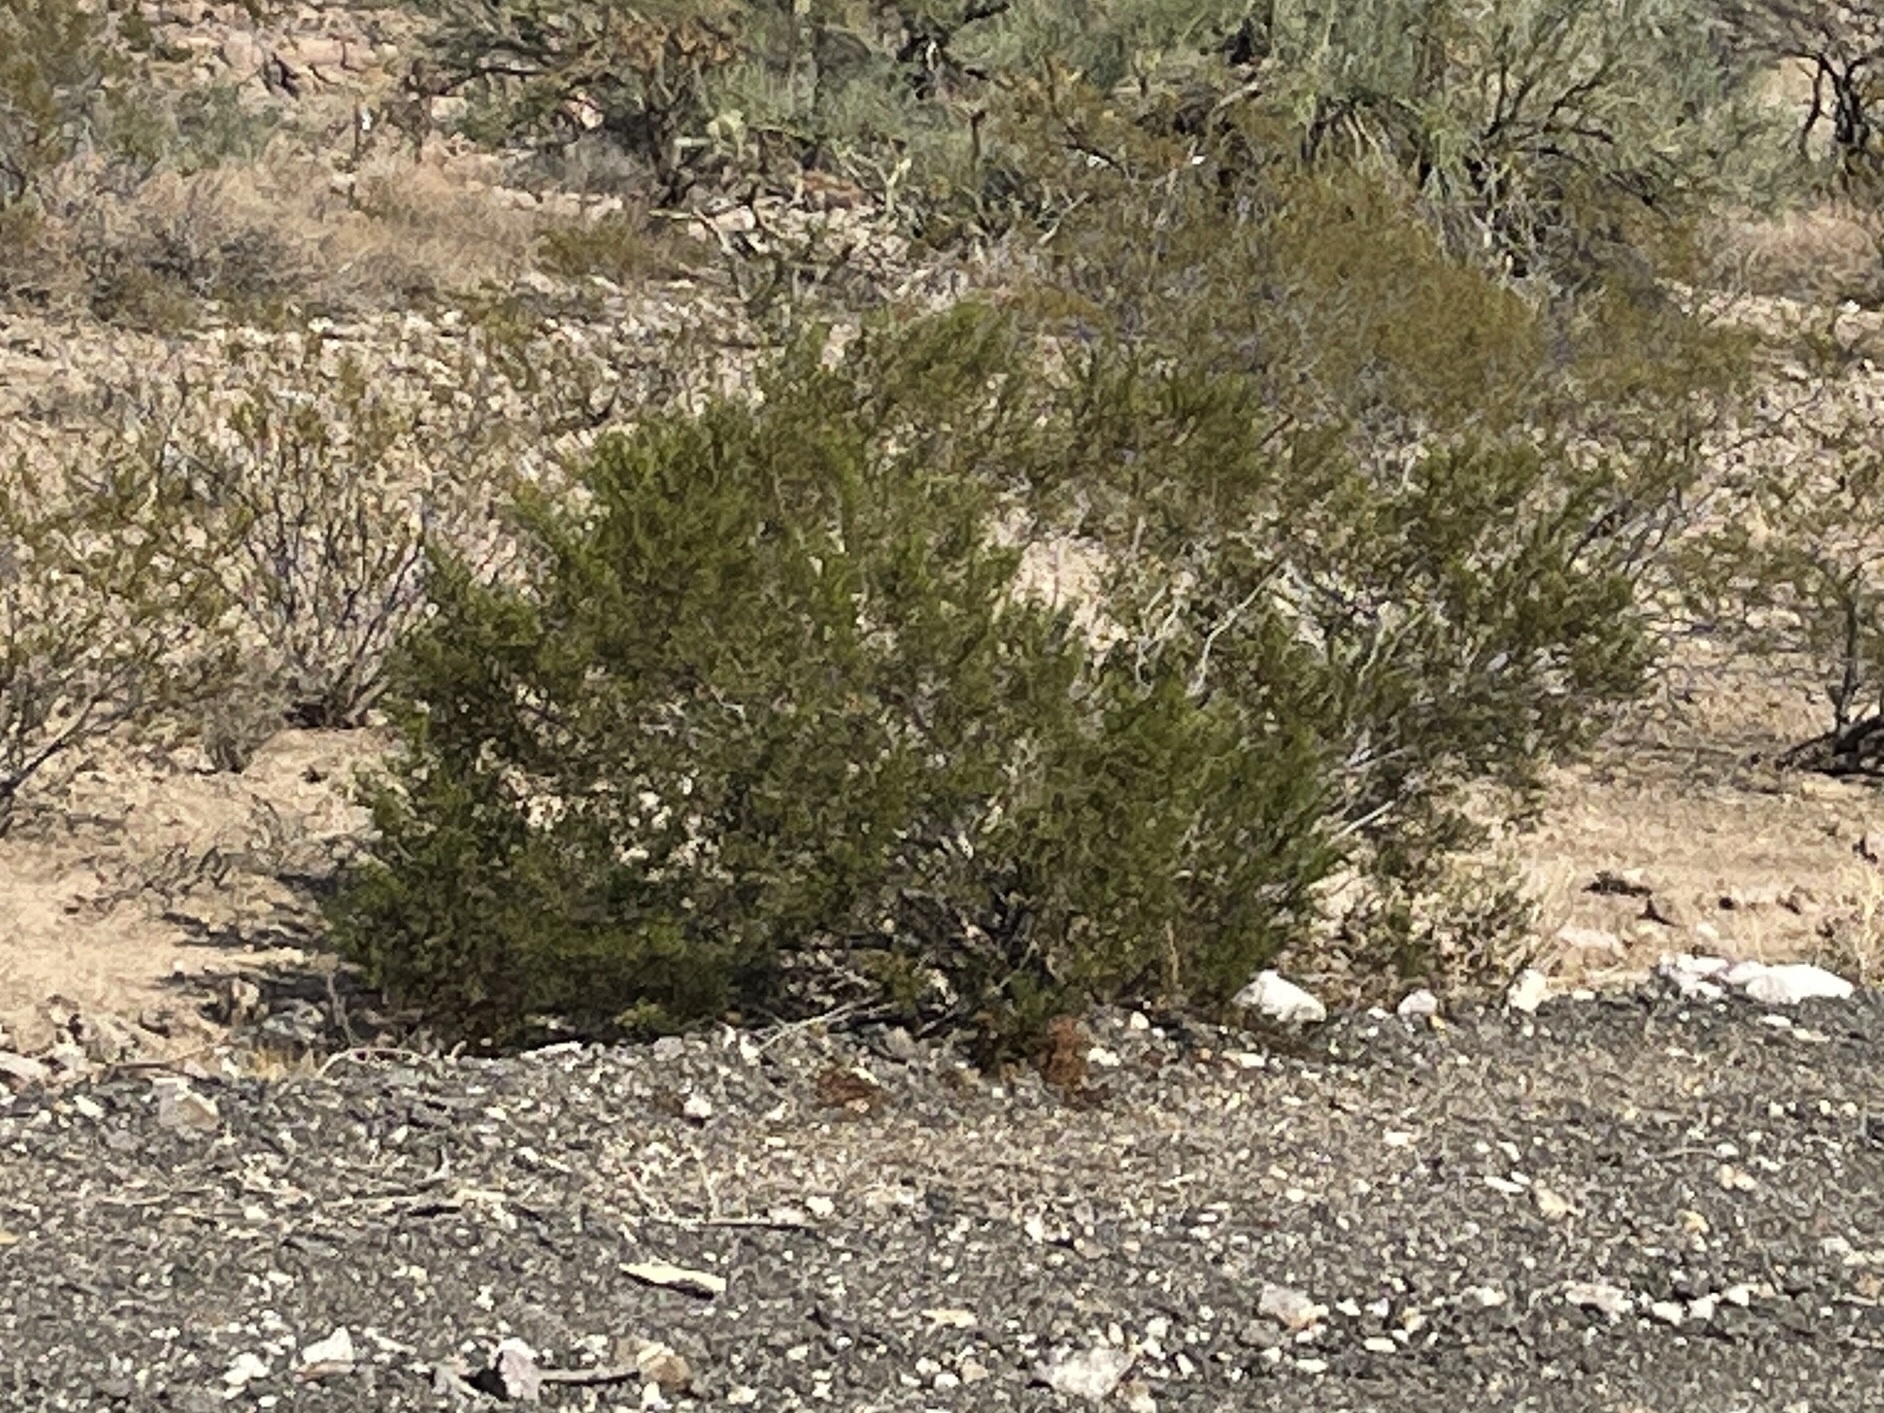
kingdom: Plantae
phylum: Tracheophyta
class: Magnoliopsida
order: Zygophyllales
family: Zygophyllaceae
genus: Larrea
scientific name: Larrea tridentata
